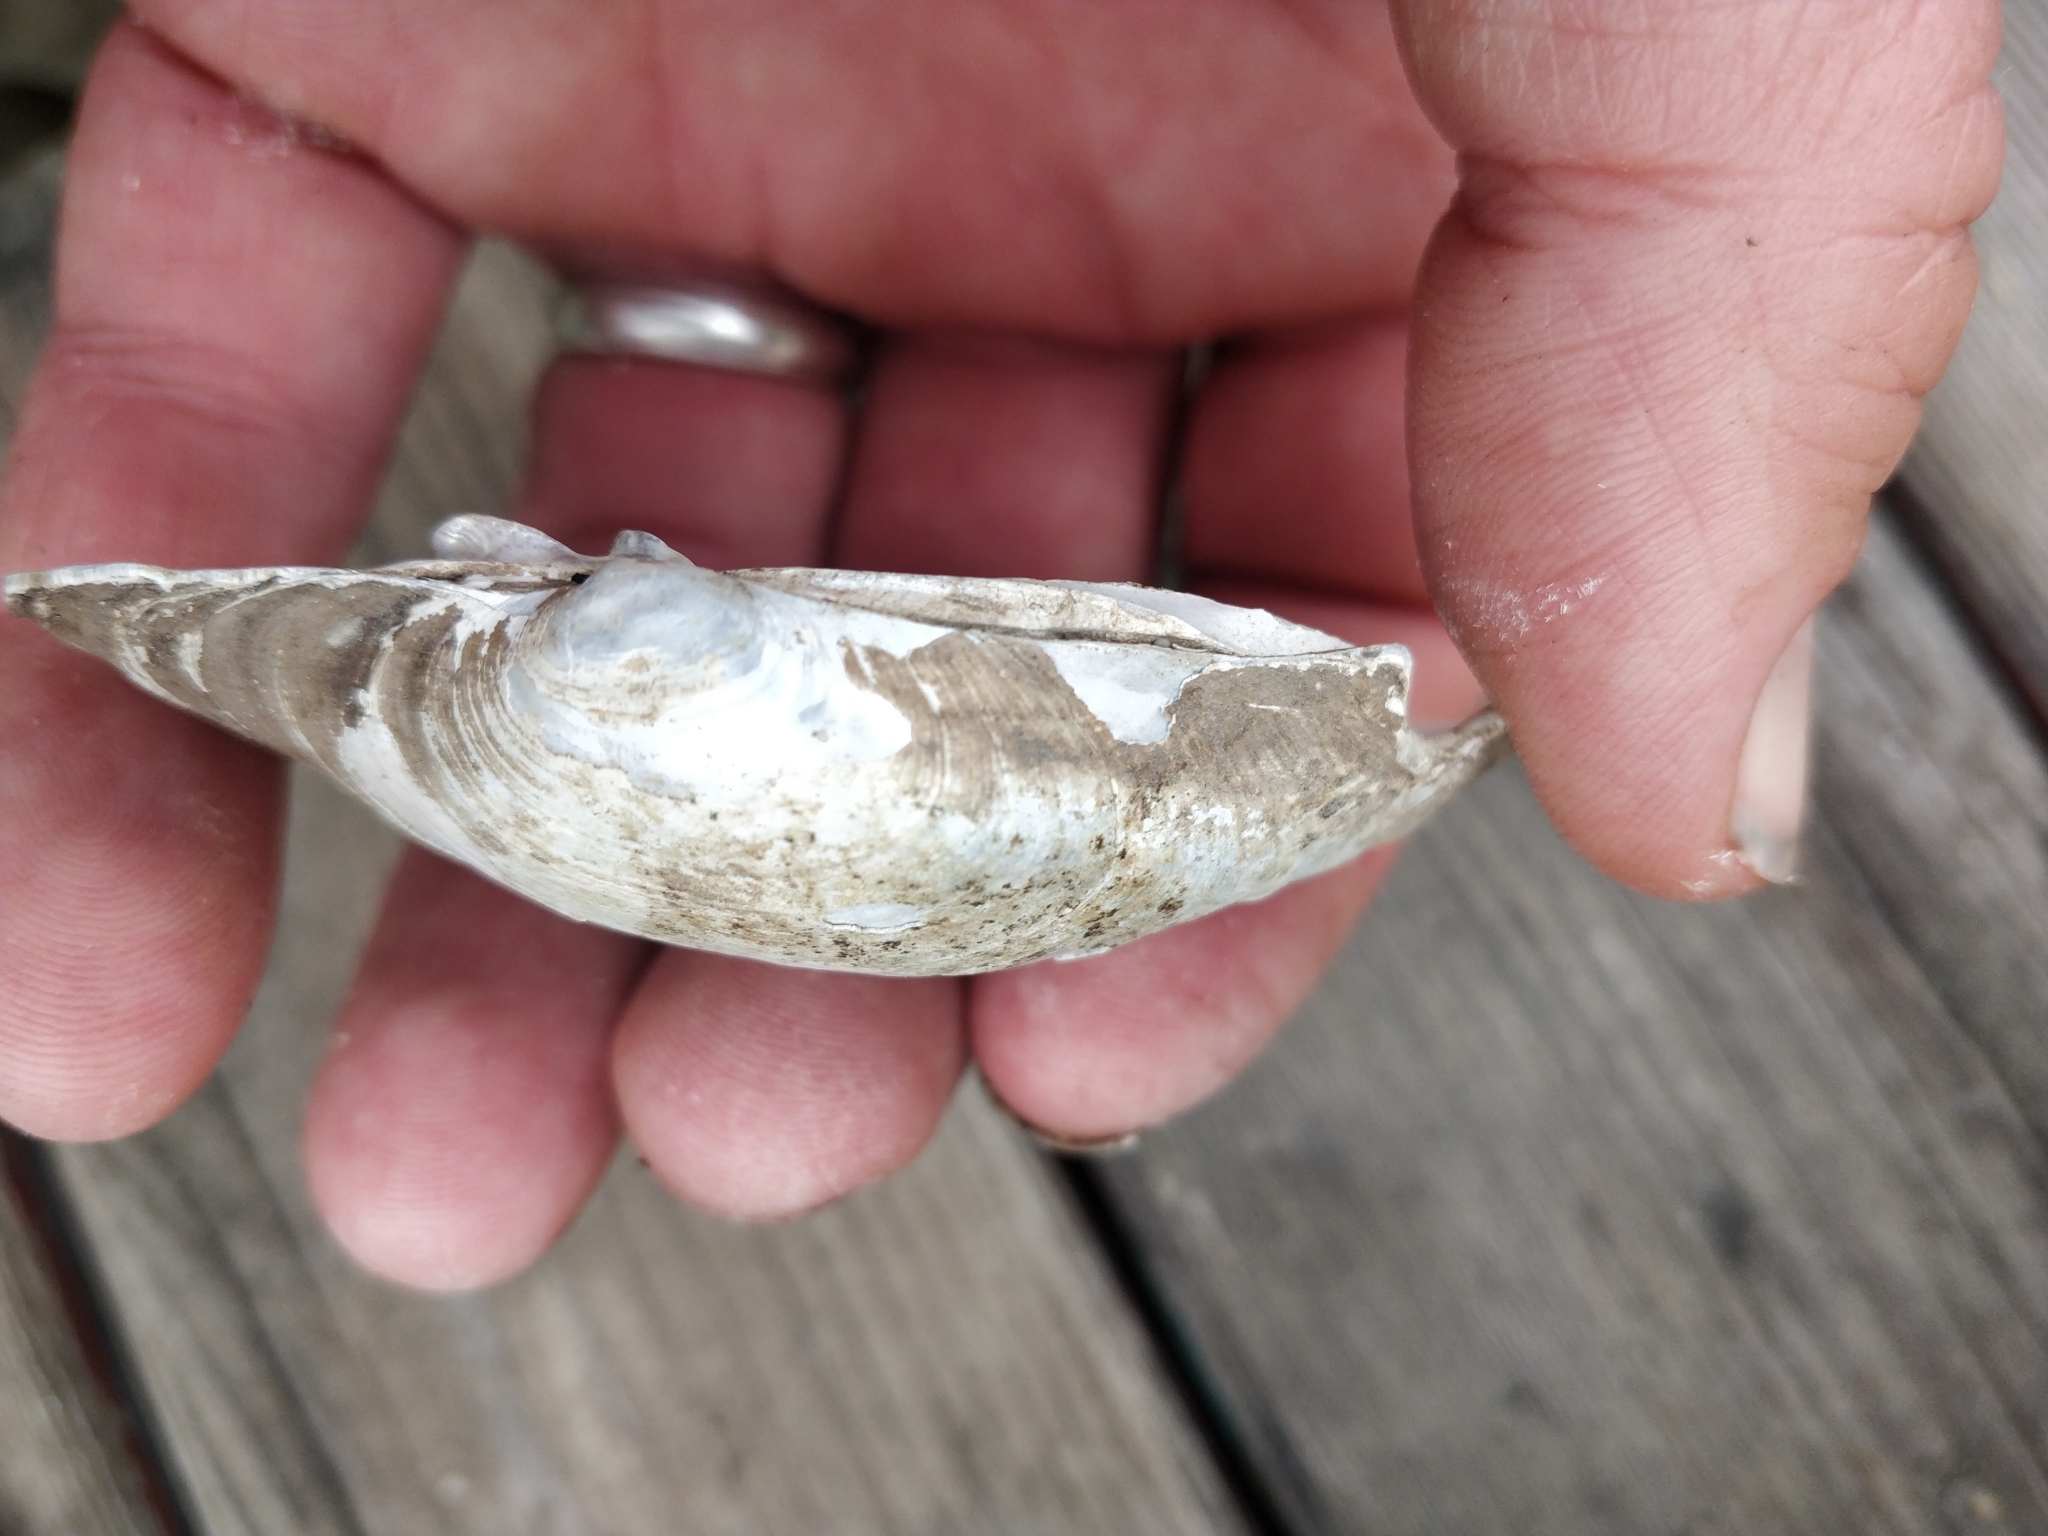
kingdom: Animalia
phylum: Mollusca
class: Bivalvia
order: Unionida
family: Unionidae
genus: Lampsilis
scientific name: Lampsilis cardium
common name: Plain pocketbook
